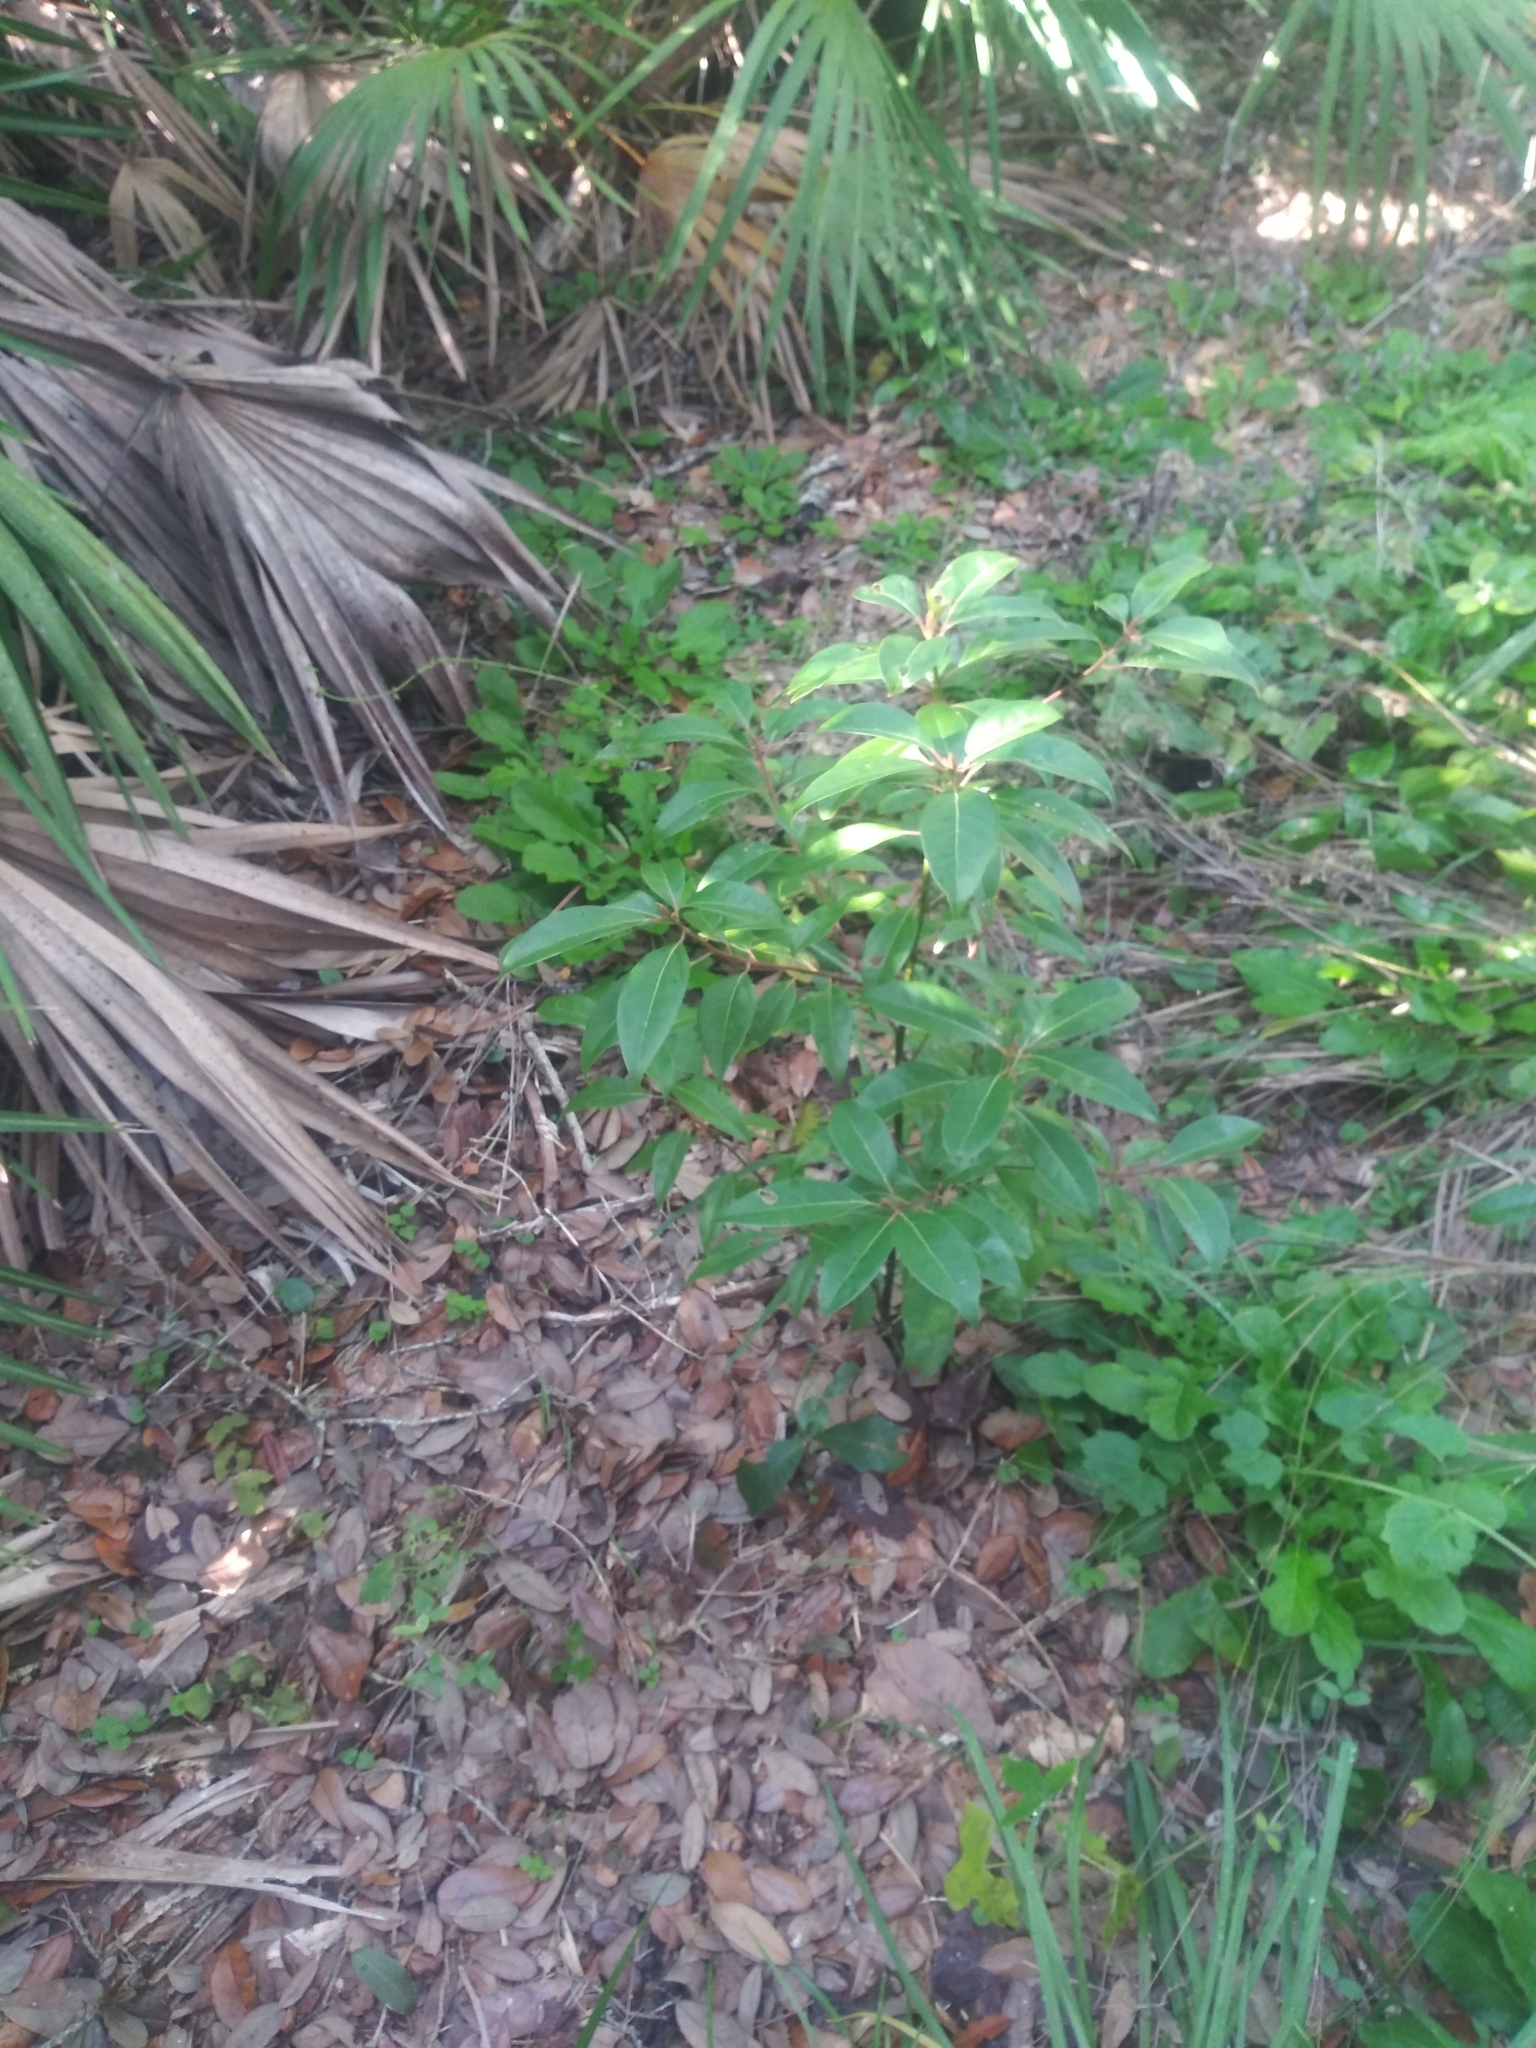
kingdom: Plantae
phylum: Tracheophyta
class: Magnoliopsida
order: Laurales
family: Lauraceae
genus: Persea
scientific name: Persea borbonia
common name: Redbay
